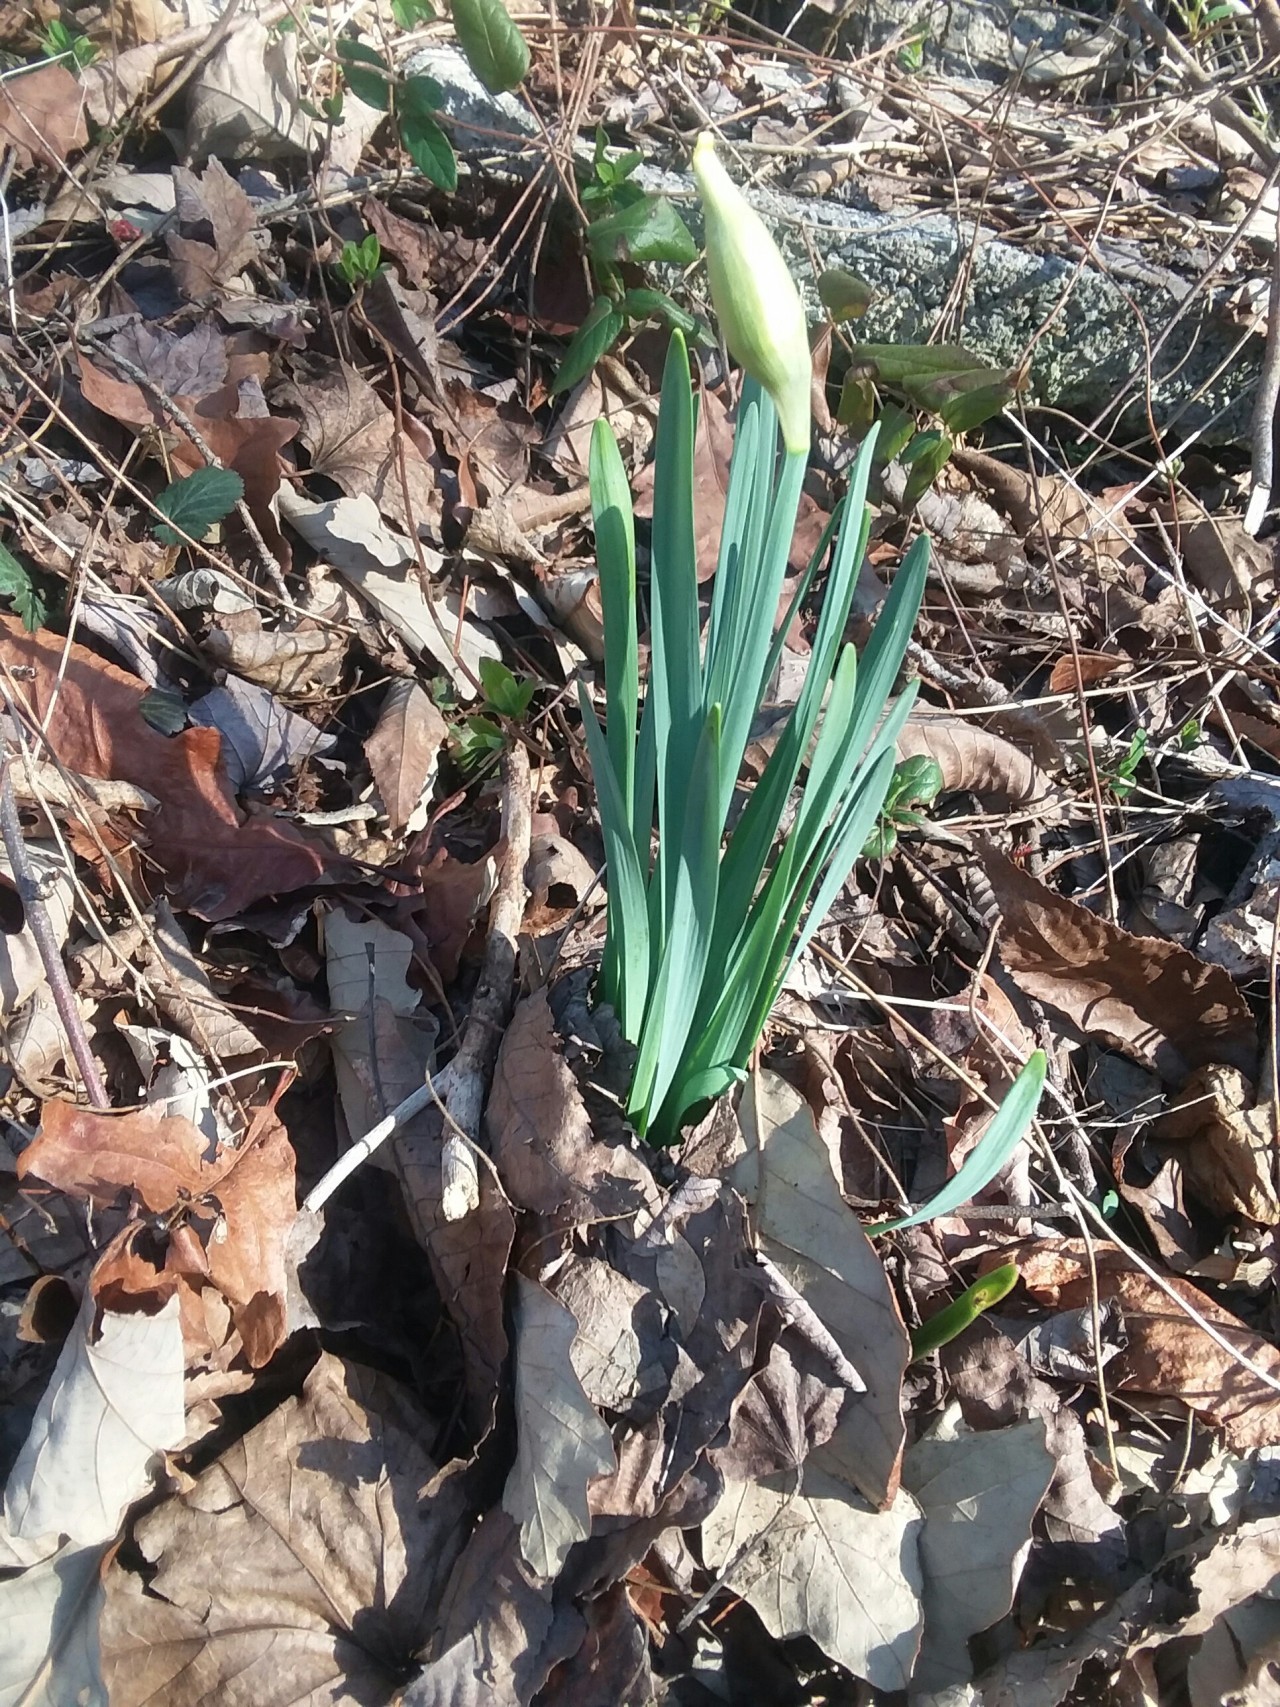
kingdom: Plantae
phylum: Tracheophyta
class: Liliopsida
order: Asparagales
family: Amaryllidaceae
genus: Narcissus
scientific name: Narcissus pseudonarcissus
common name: Daffodil
